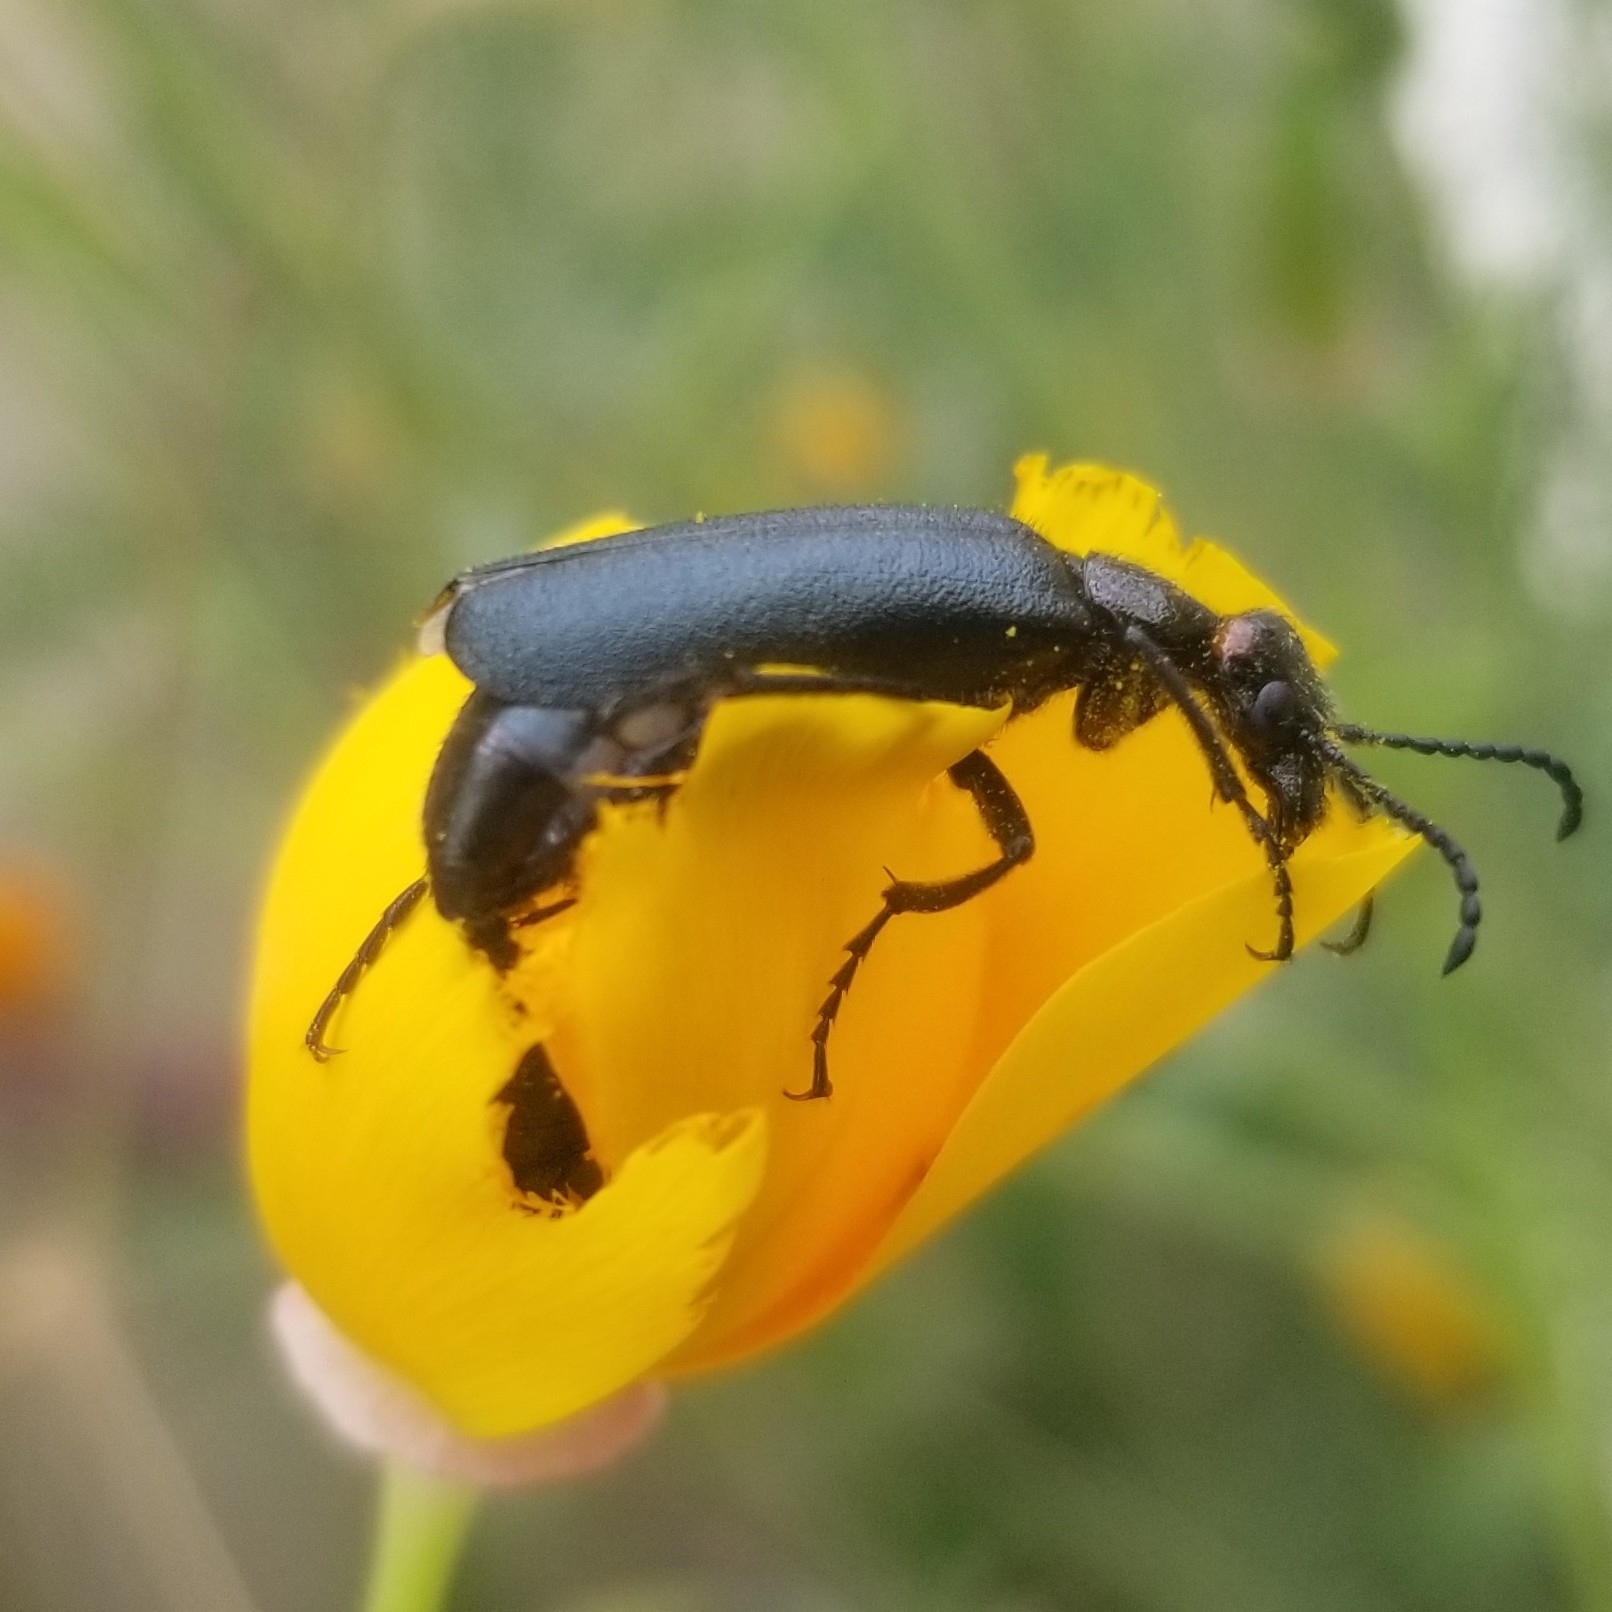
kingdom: Animalia
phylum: Arthropoda
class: Insecta
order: Coleoptera
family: Meloidae
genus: Lytta
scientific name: Lytta auriculata
